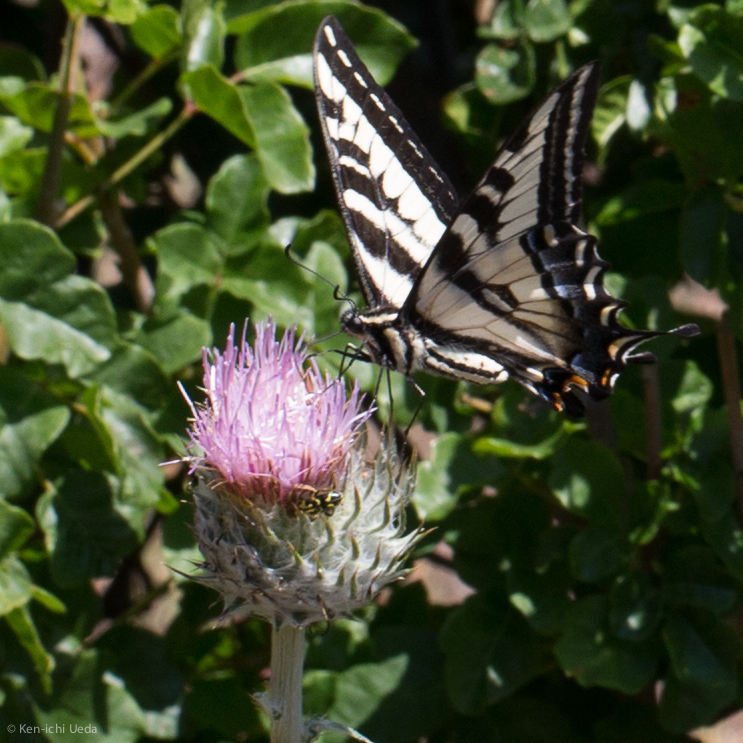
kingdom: Animalia
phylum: Arthropoda
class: Insecta
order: Lepidoptera
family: Papilionidae
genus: Papilio
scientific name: Papilio eurymedon
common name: Pale tiger swallowtail
